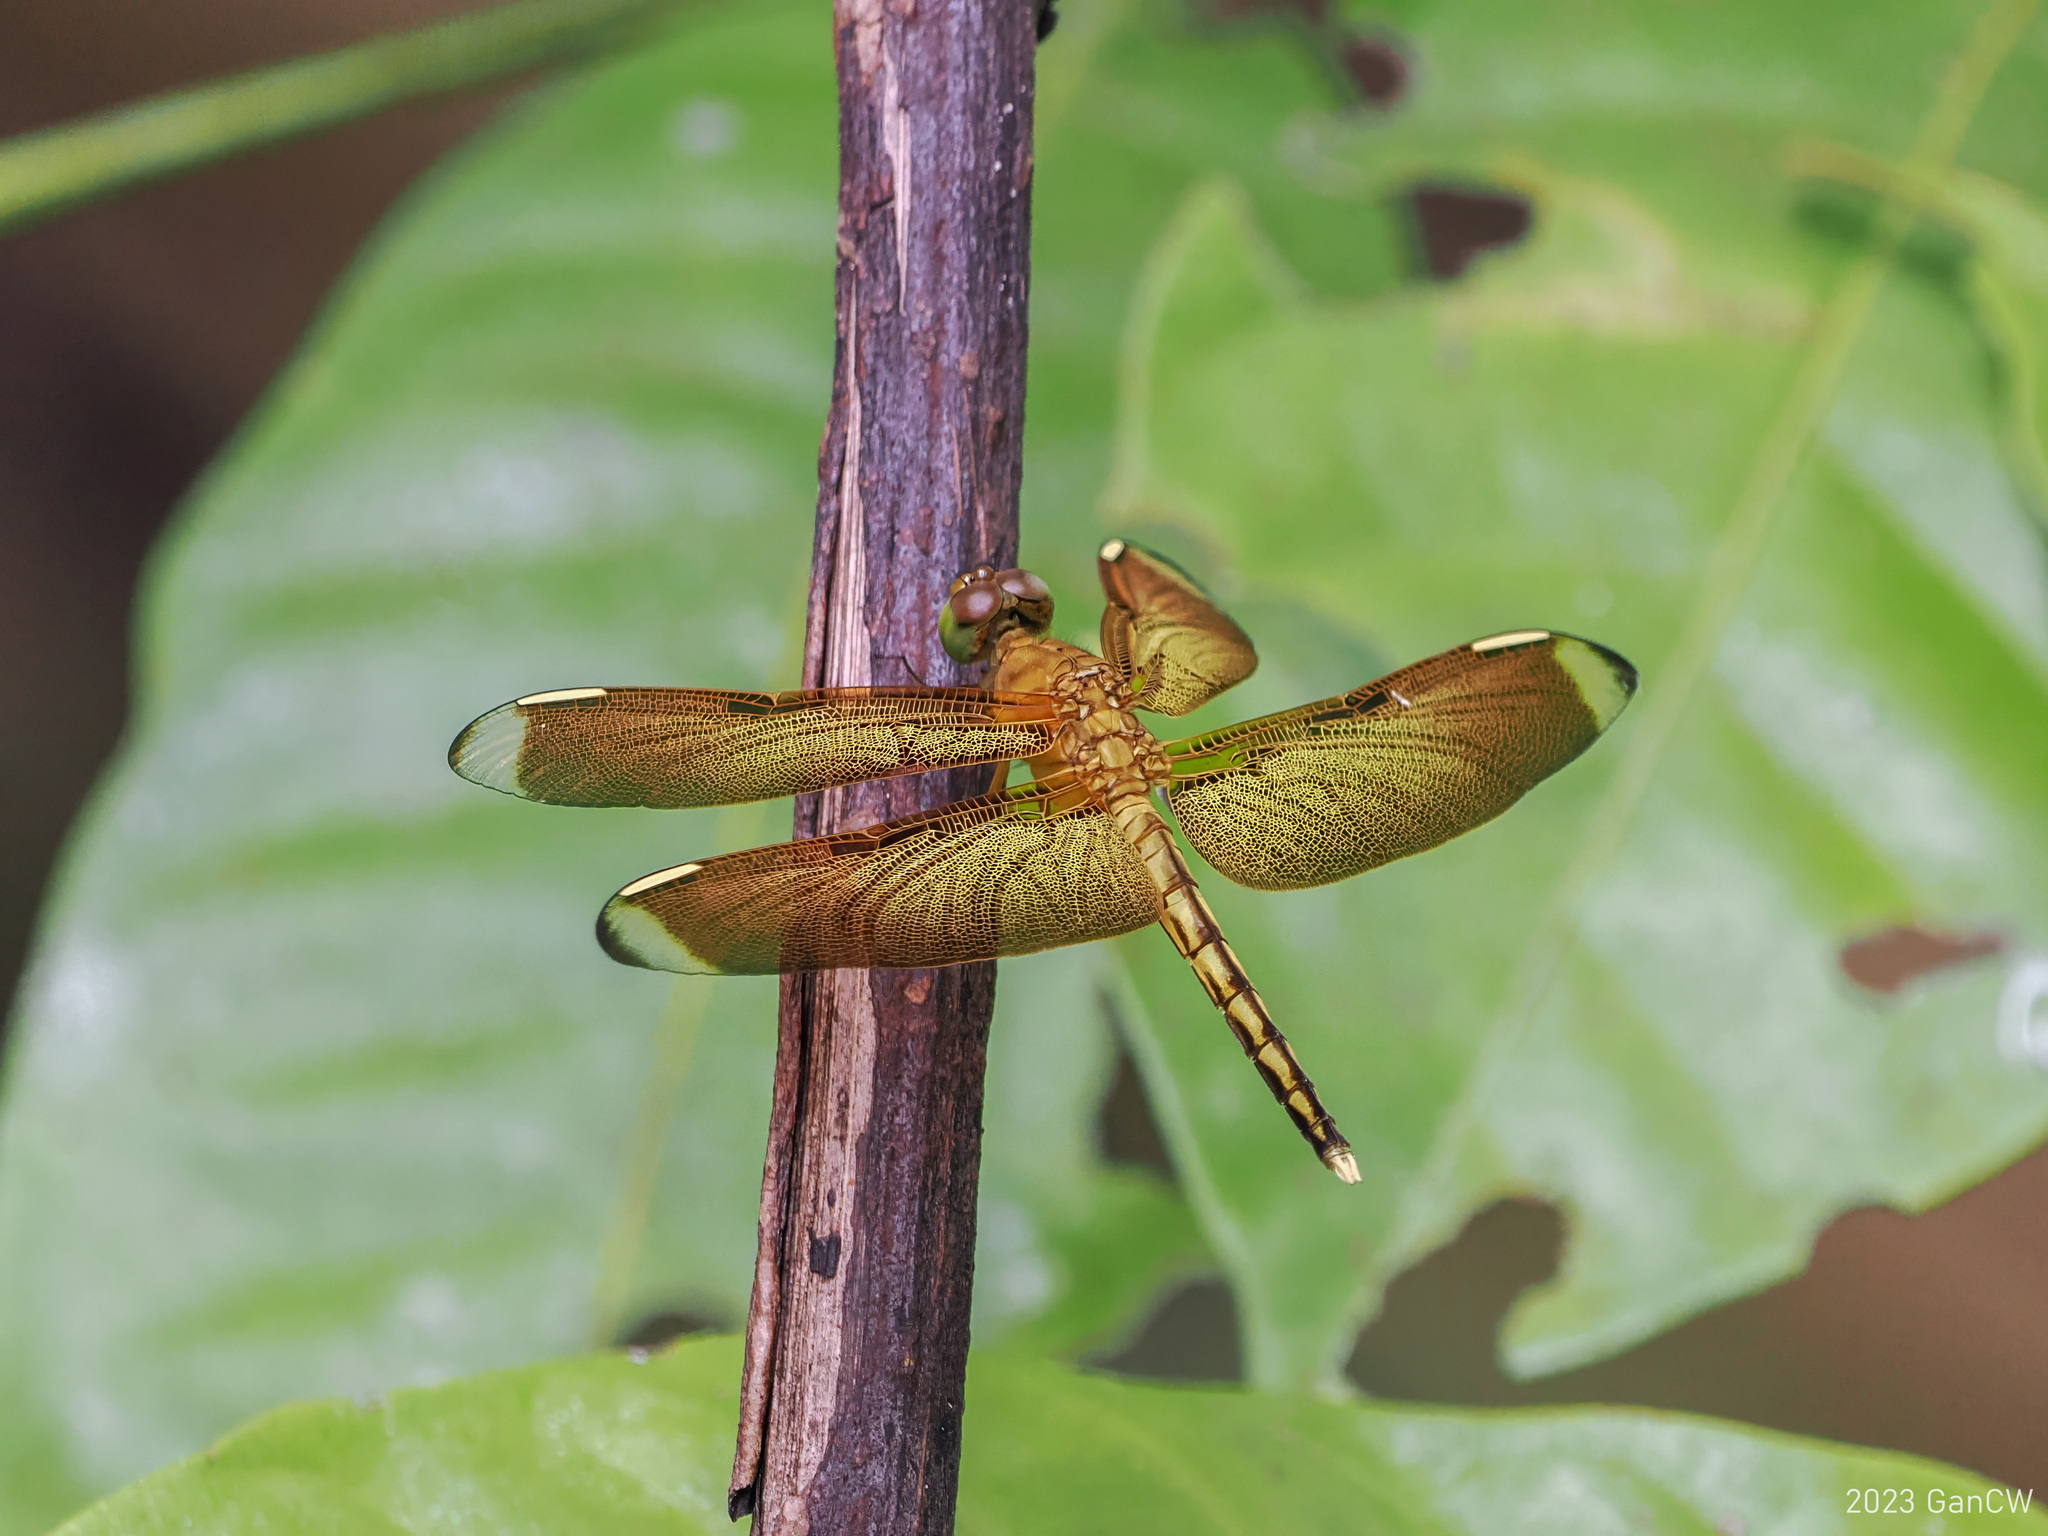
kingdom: Animalia
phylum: Arthropoda
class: Insecta
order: Odonata
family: Libellulidae
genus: Neurothemis
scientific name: Neurothemis manadensis
